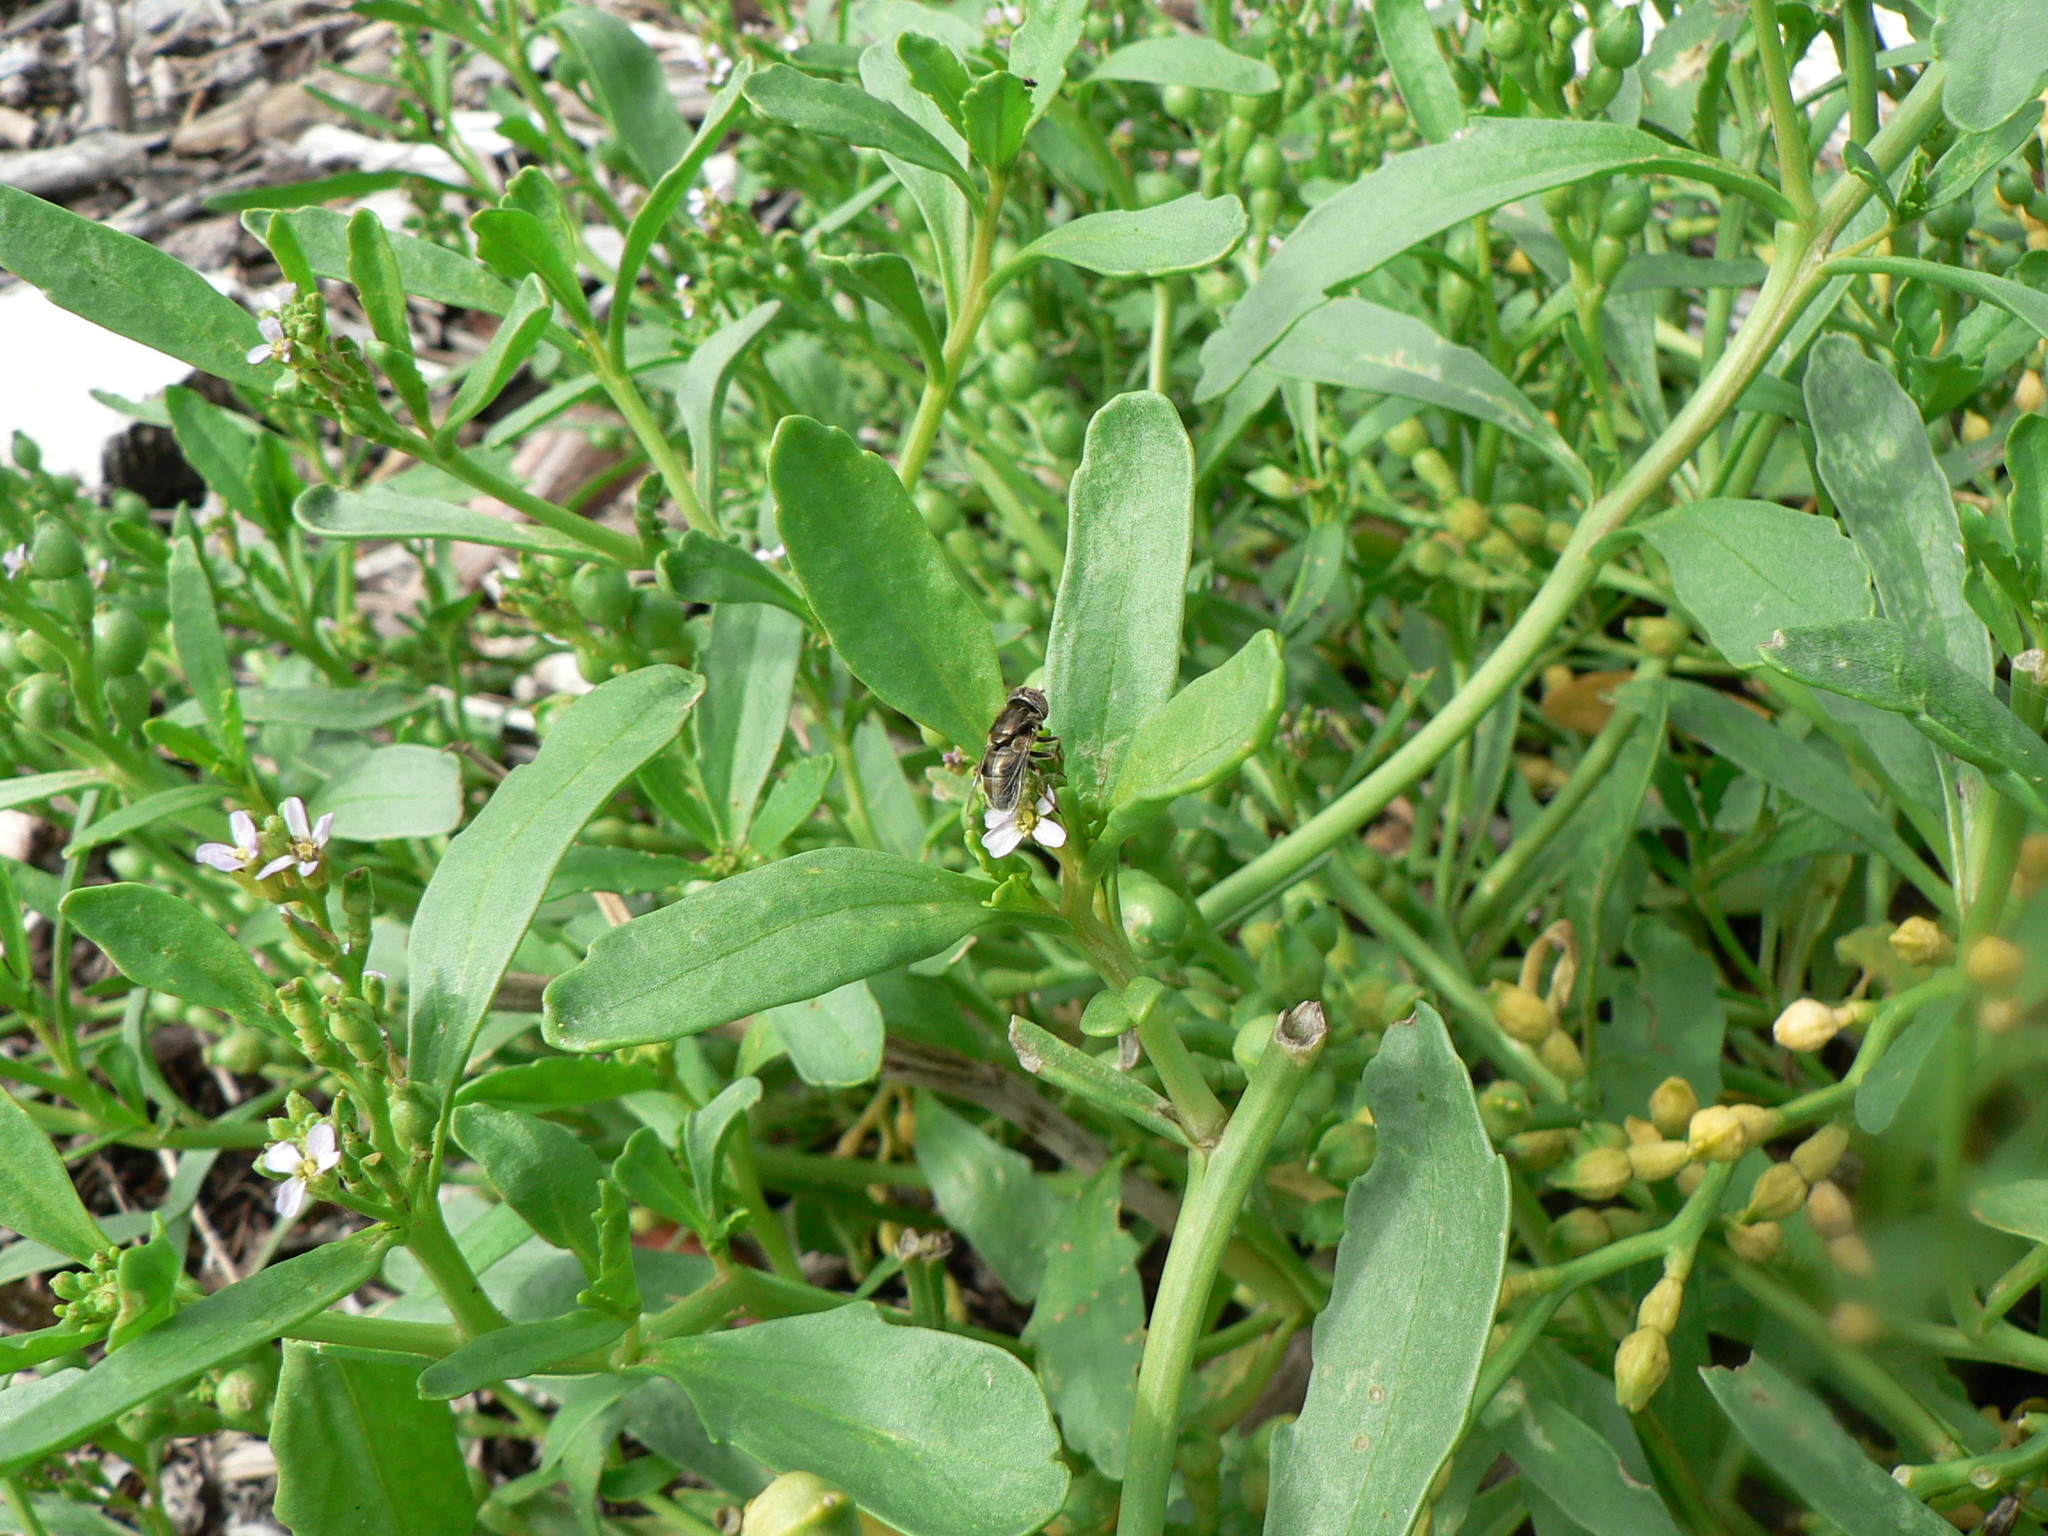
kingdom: Animalia
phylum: Arthropoda
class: Insecta
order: Diptera
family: Syrphidae
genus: Eristalinus
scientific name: Eristalinus aeneus
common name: Syrphid fly
